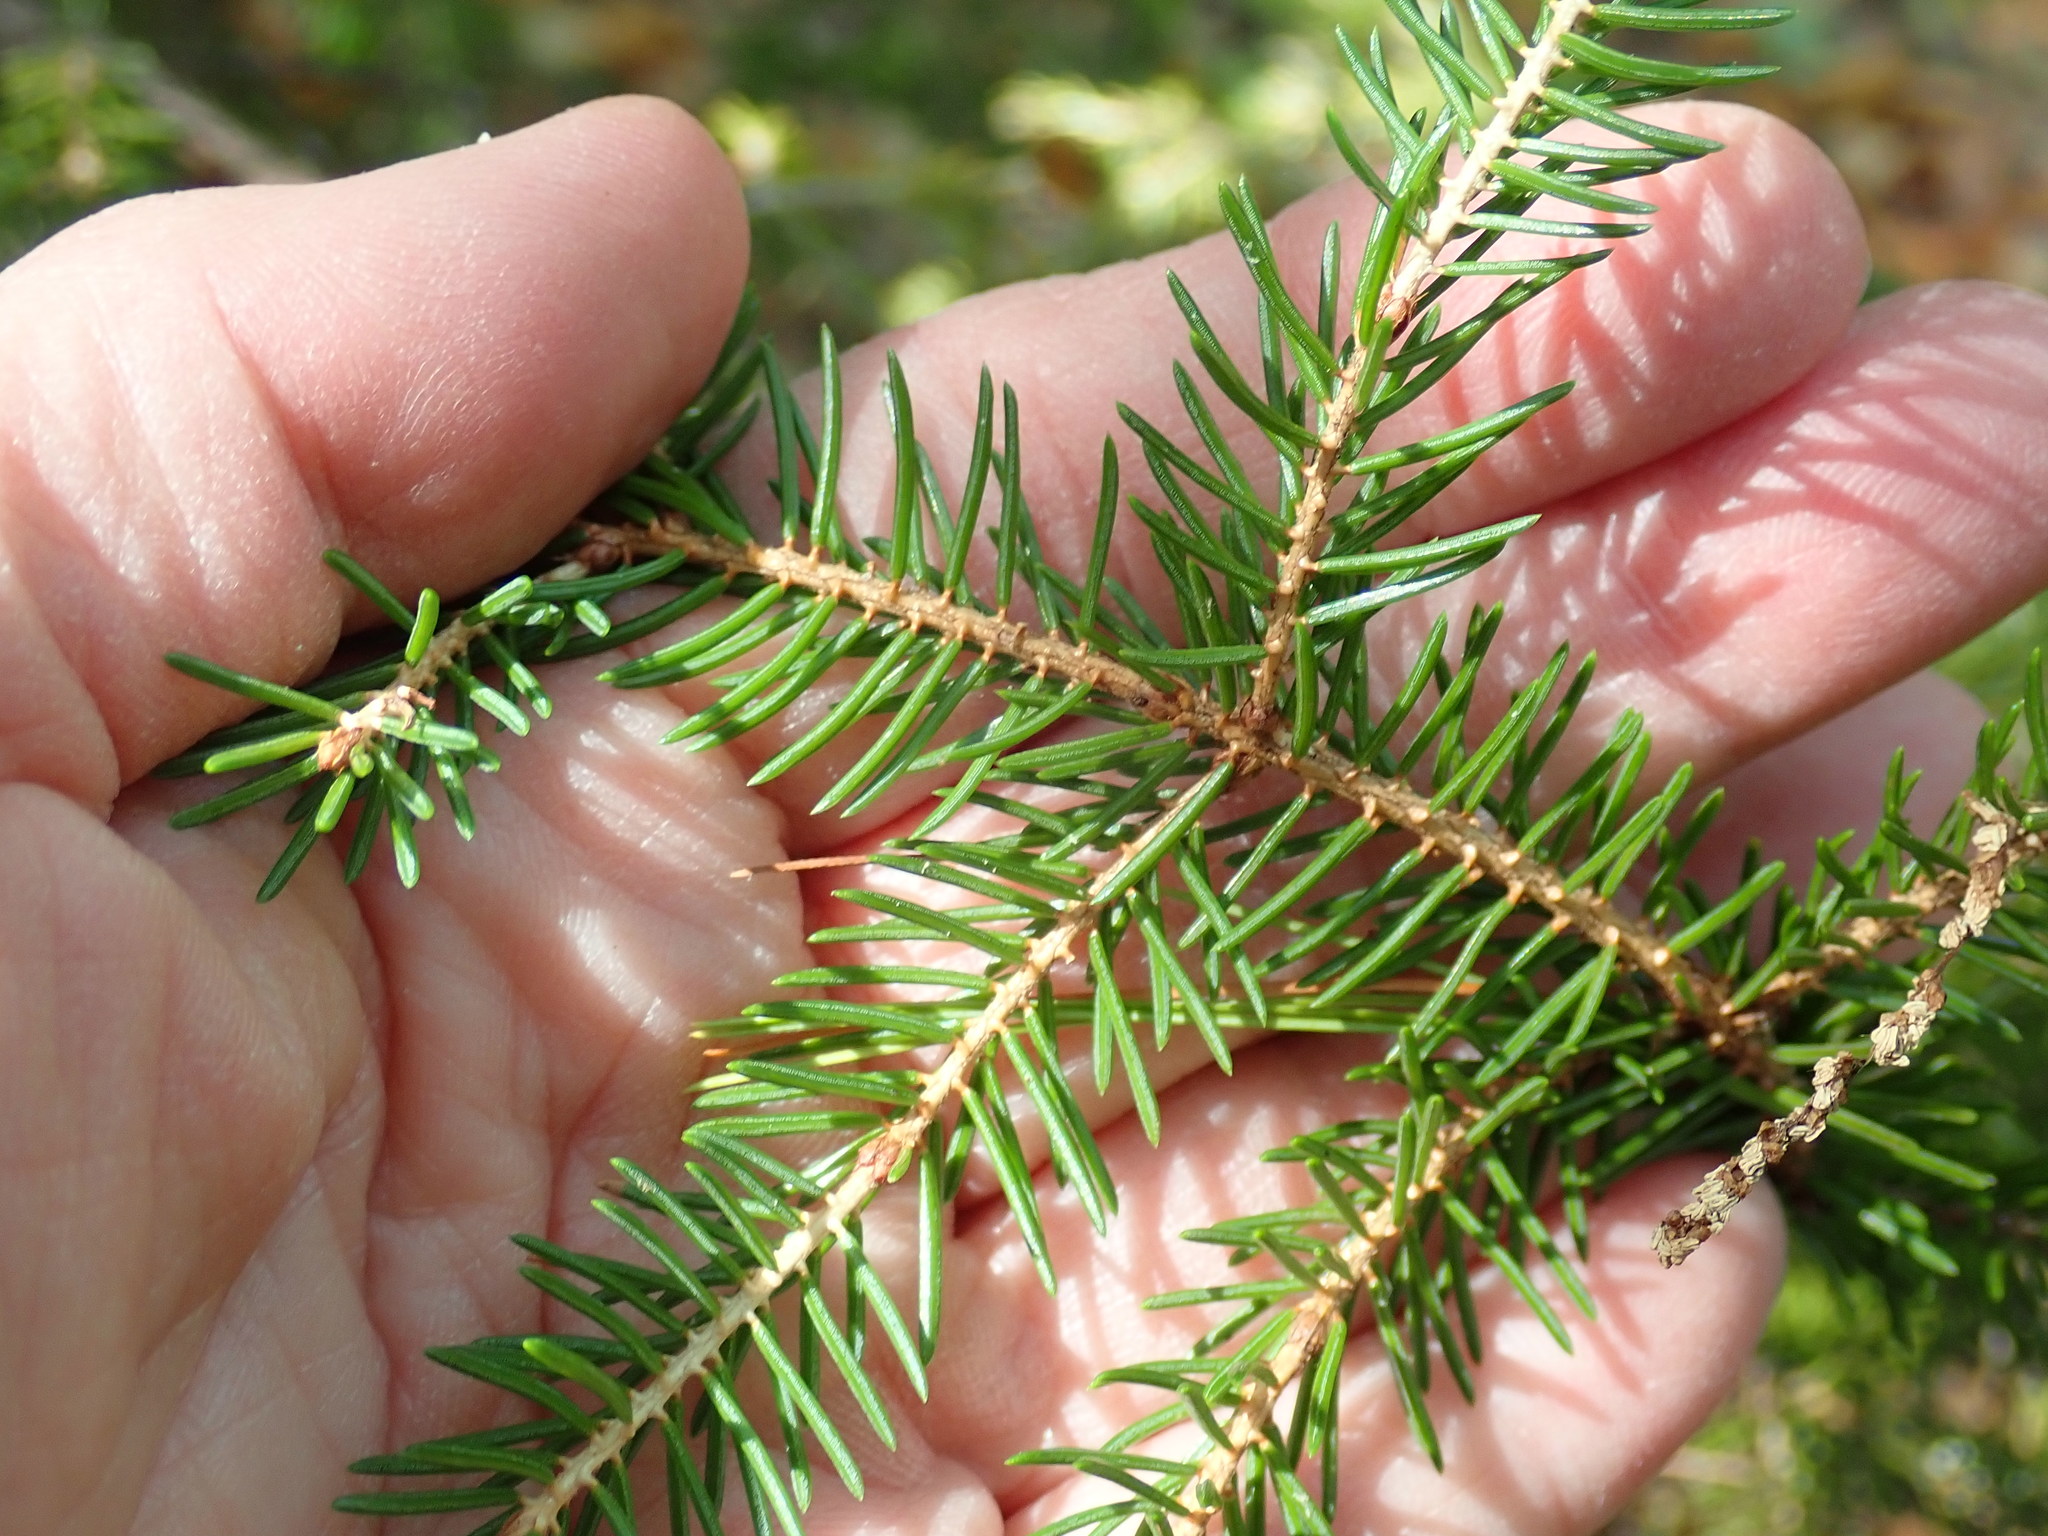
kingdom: Plantae
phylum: Tracheophyta
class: Pinopsida
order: Pinales
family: Pinaceae
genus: Picea
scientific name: Picea
